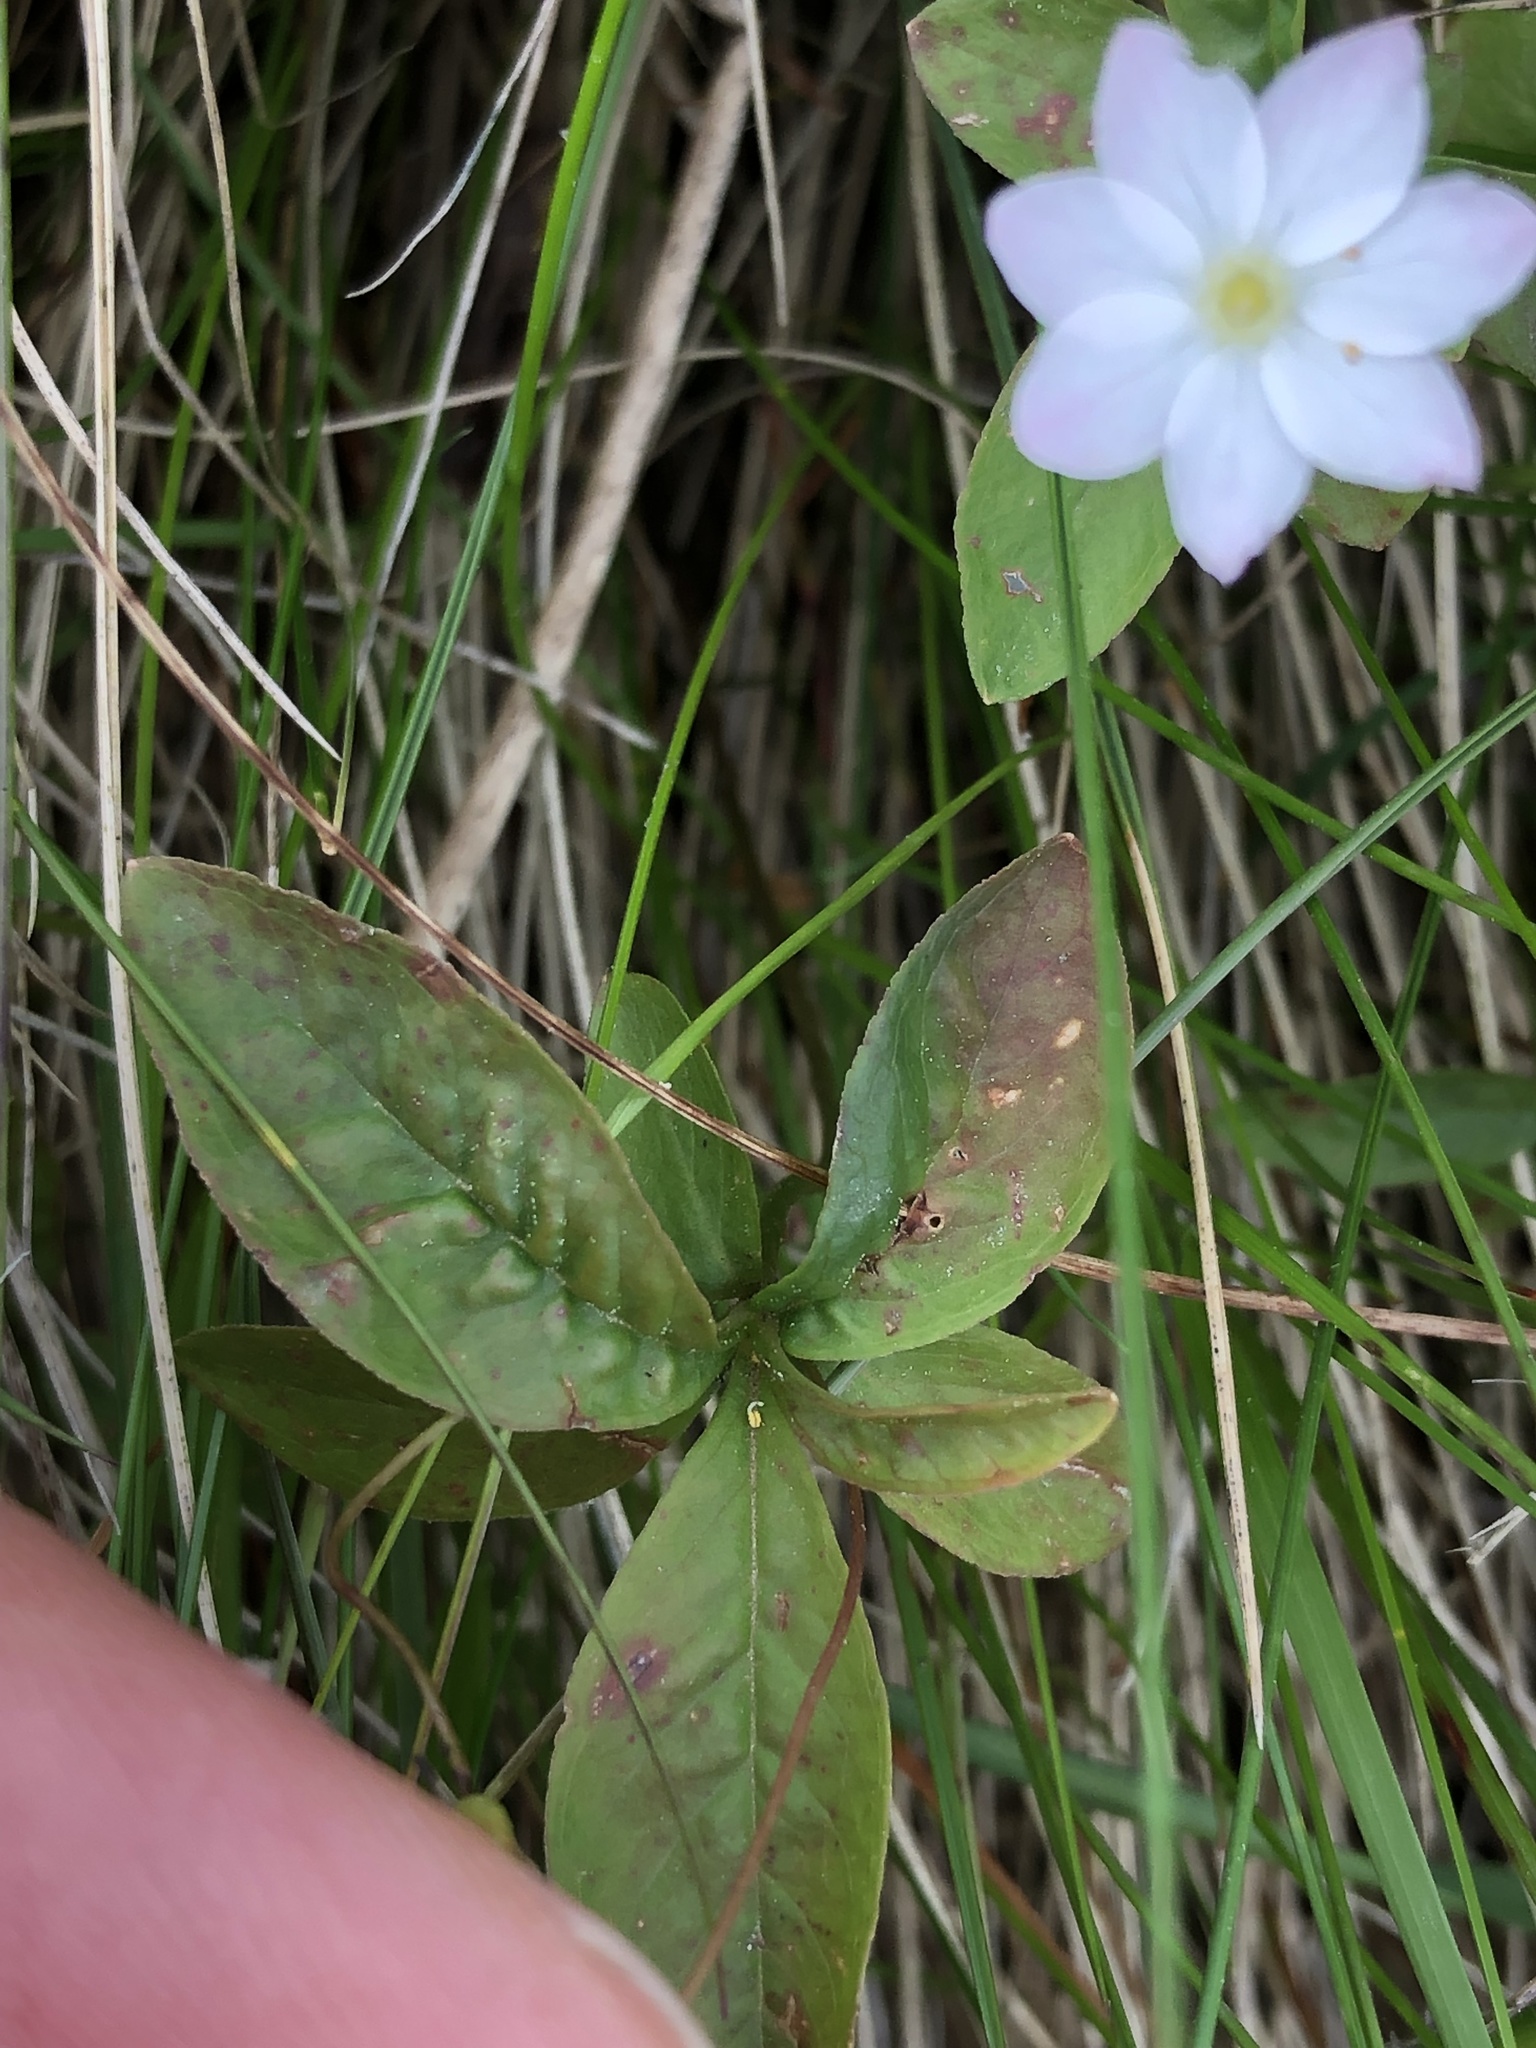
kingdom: Plantae
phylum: Tracheophyta
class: Magnoliopsida
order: Ericales
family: Primulaceae
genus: Lysimachia
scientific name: Lysimachia europaea
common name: Arctic starflower
